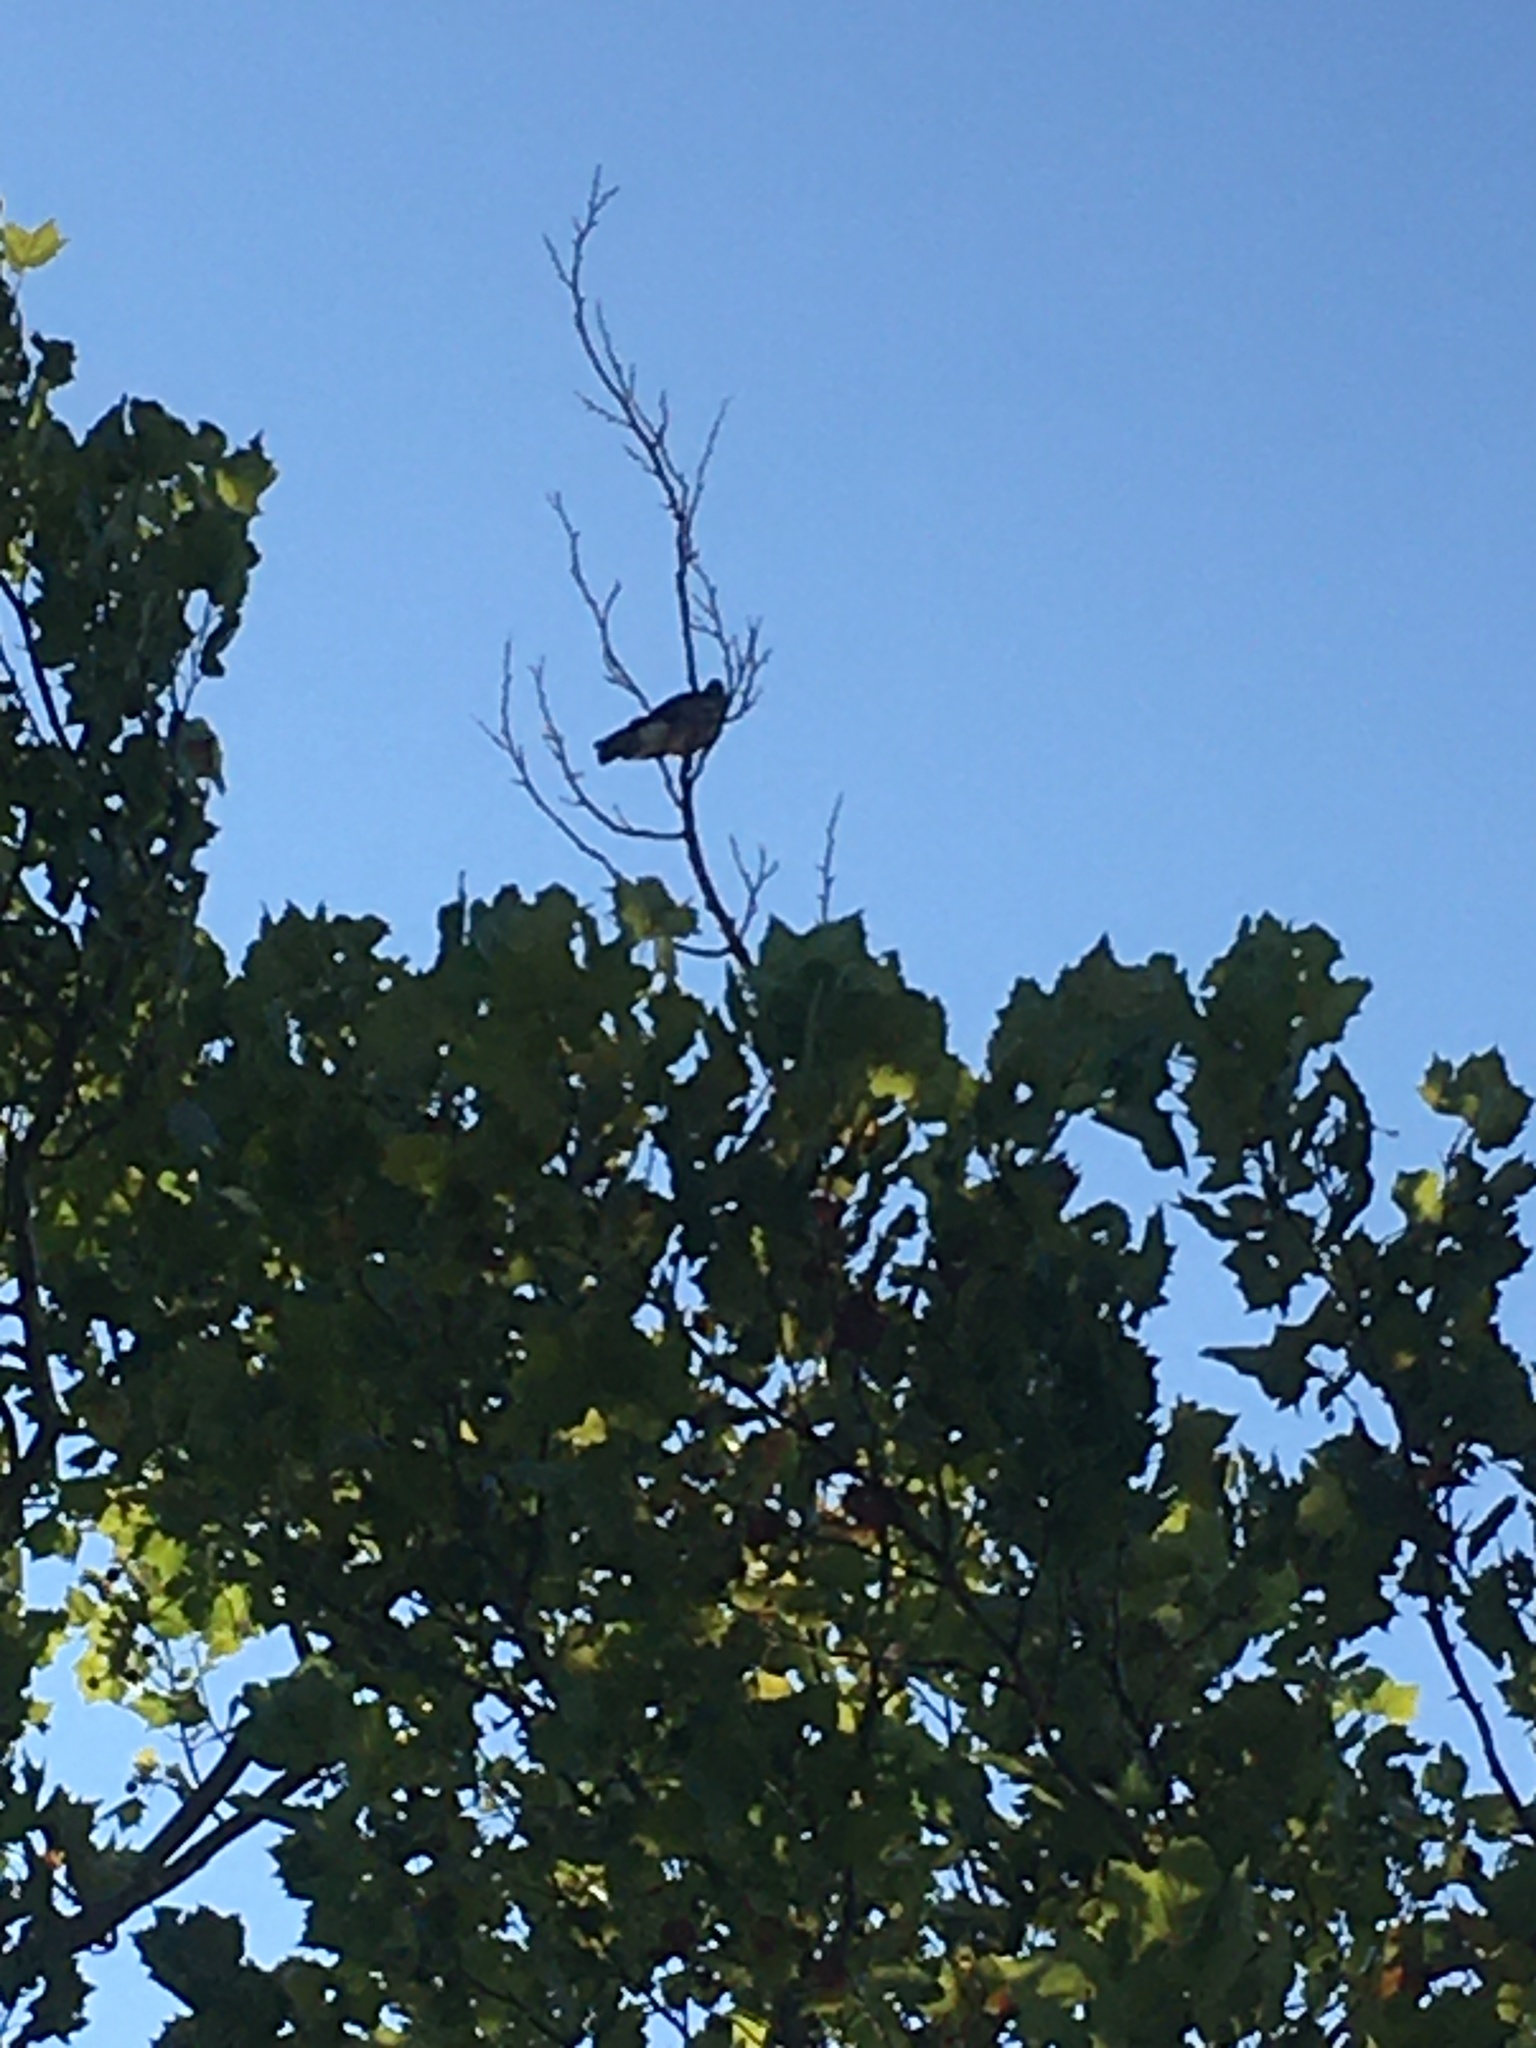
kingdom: Animalia
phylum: Chordata
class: Aves
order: Accipitriformes
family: Accipitridae
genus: Ictinia
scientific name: Ictinia mississippiensis
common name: Mississippi kite
